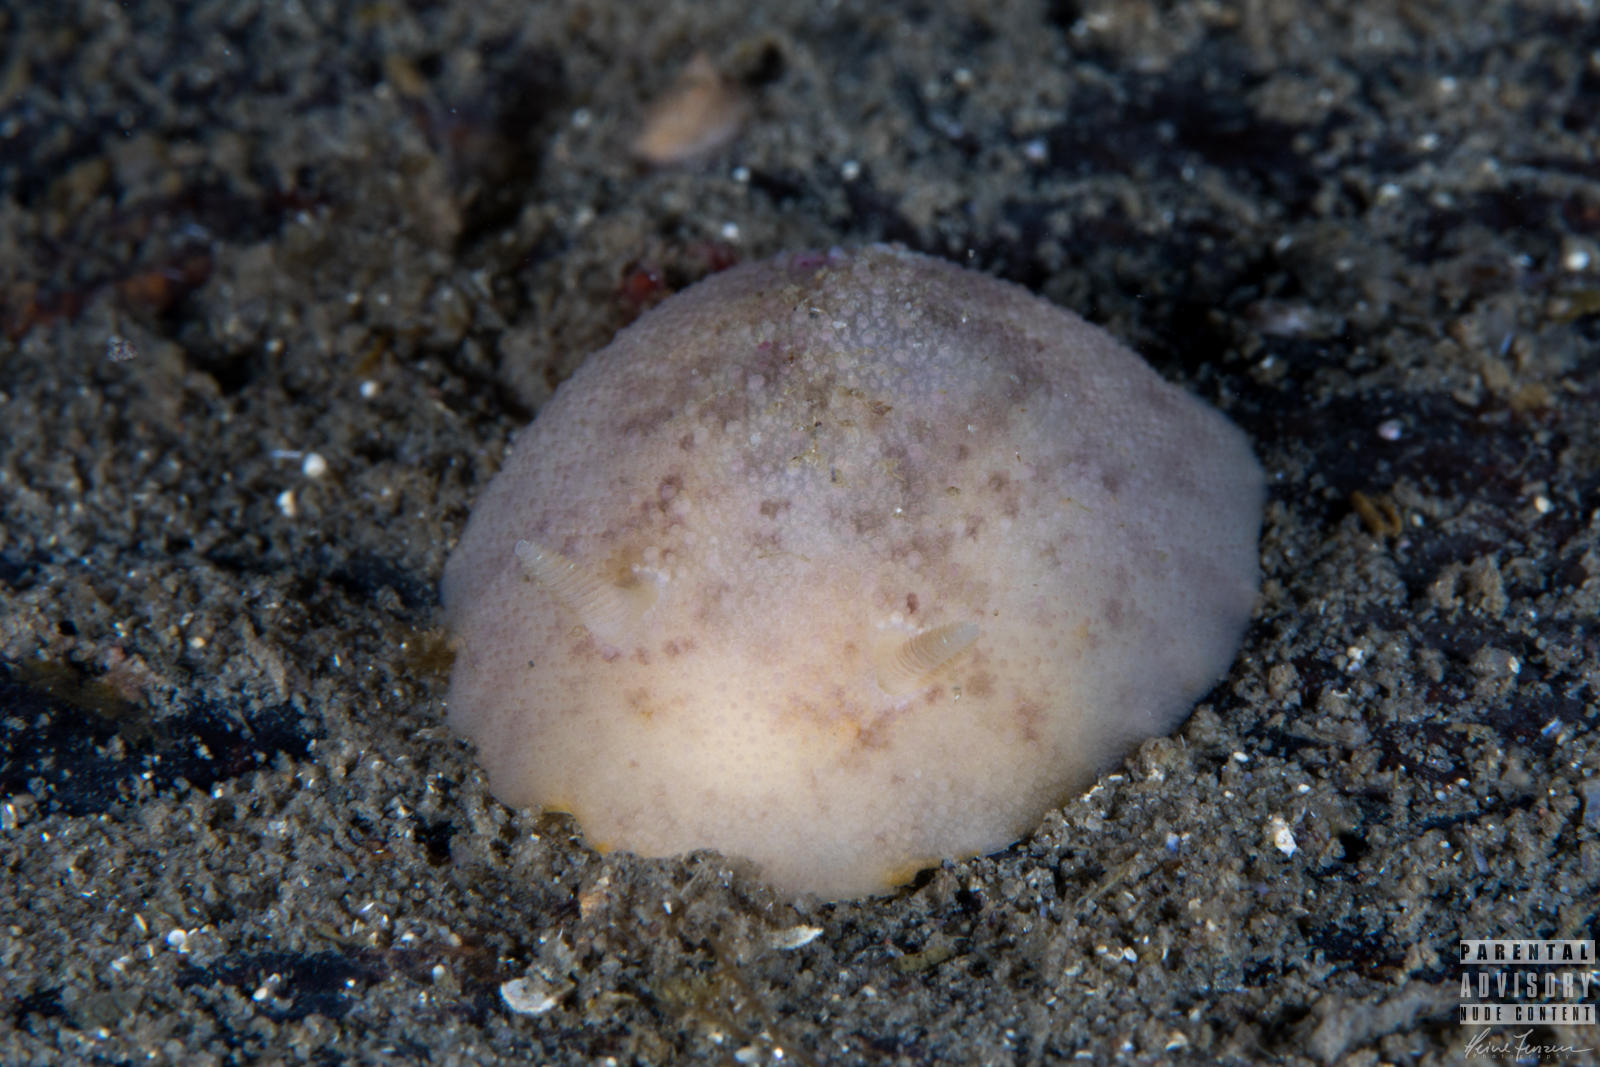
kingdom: Animalia
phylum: Mollusca
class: Gastropoda
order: Nudibranchia
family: Dorididae
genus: Doris
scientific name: Doris pseudoargus
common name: Sea lemon
